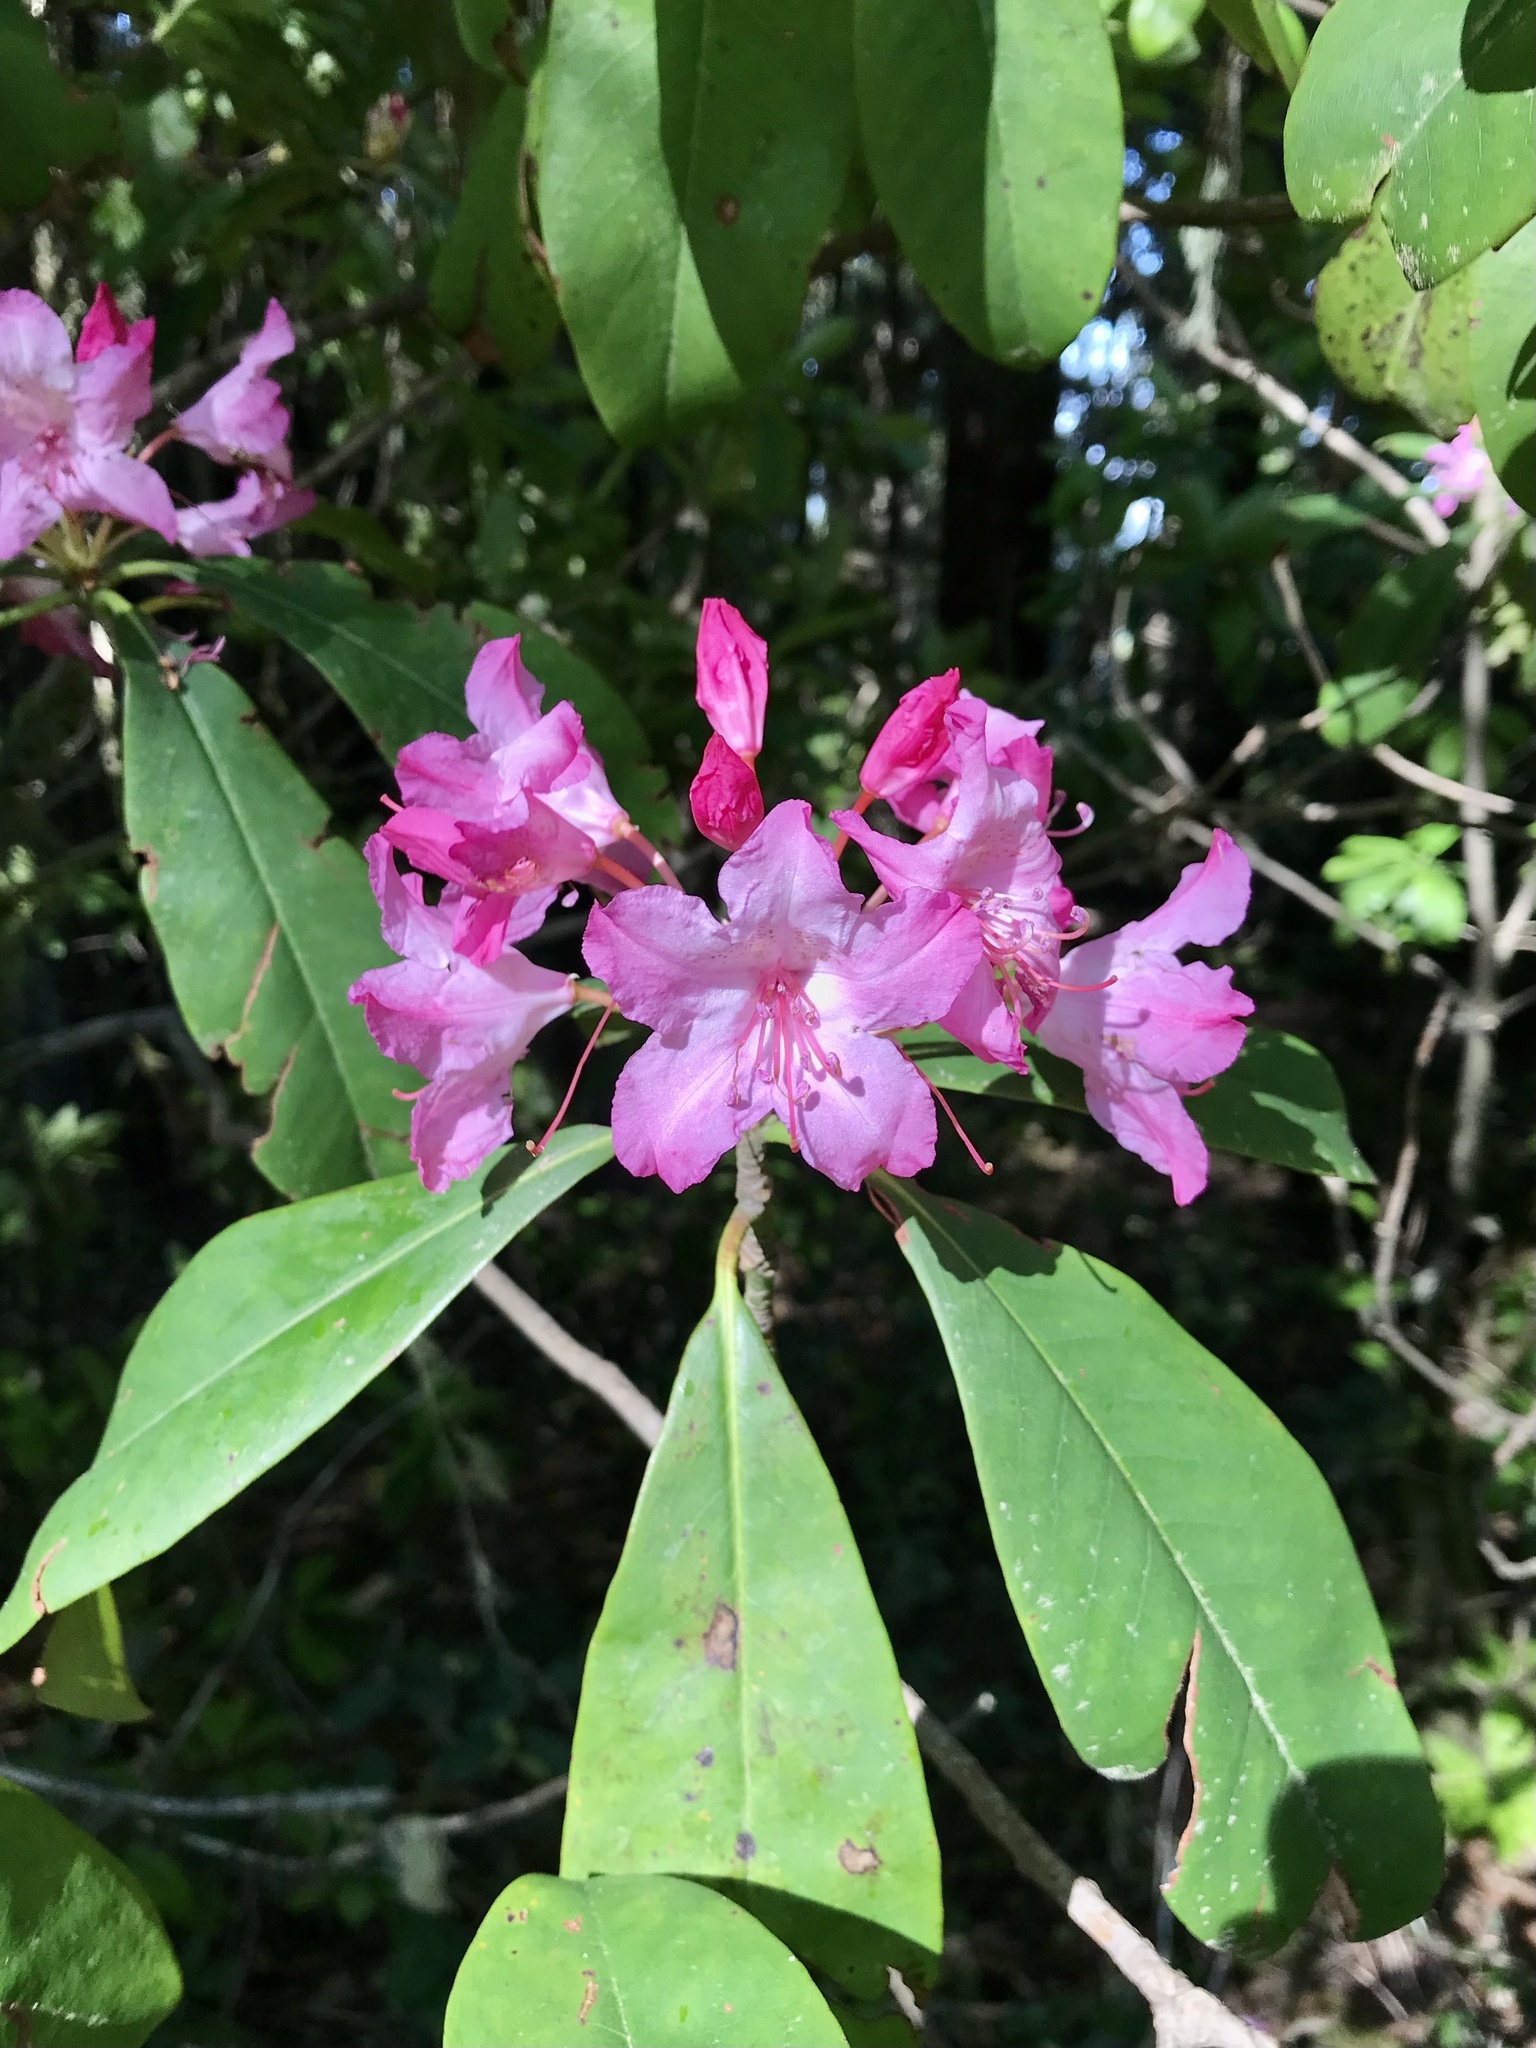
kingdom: Plantae
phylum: Tracheophyta
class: Magnoliopsida
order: Ericales
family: Ericaceae
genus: Rhododendron
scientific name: Rhododendron macrophyllum
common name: California rose bay
